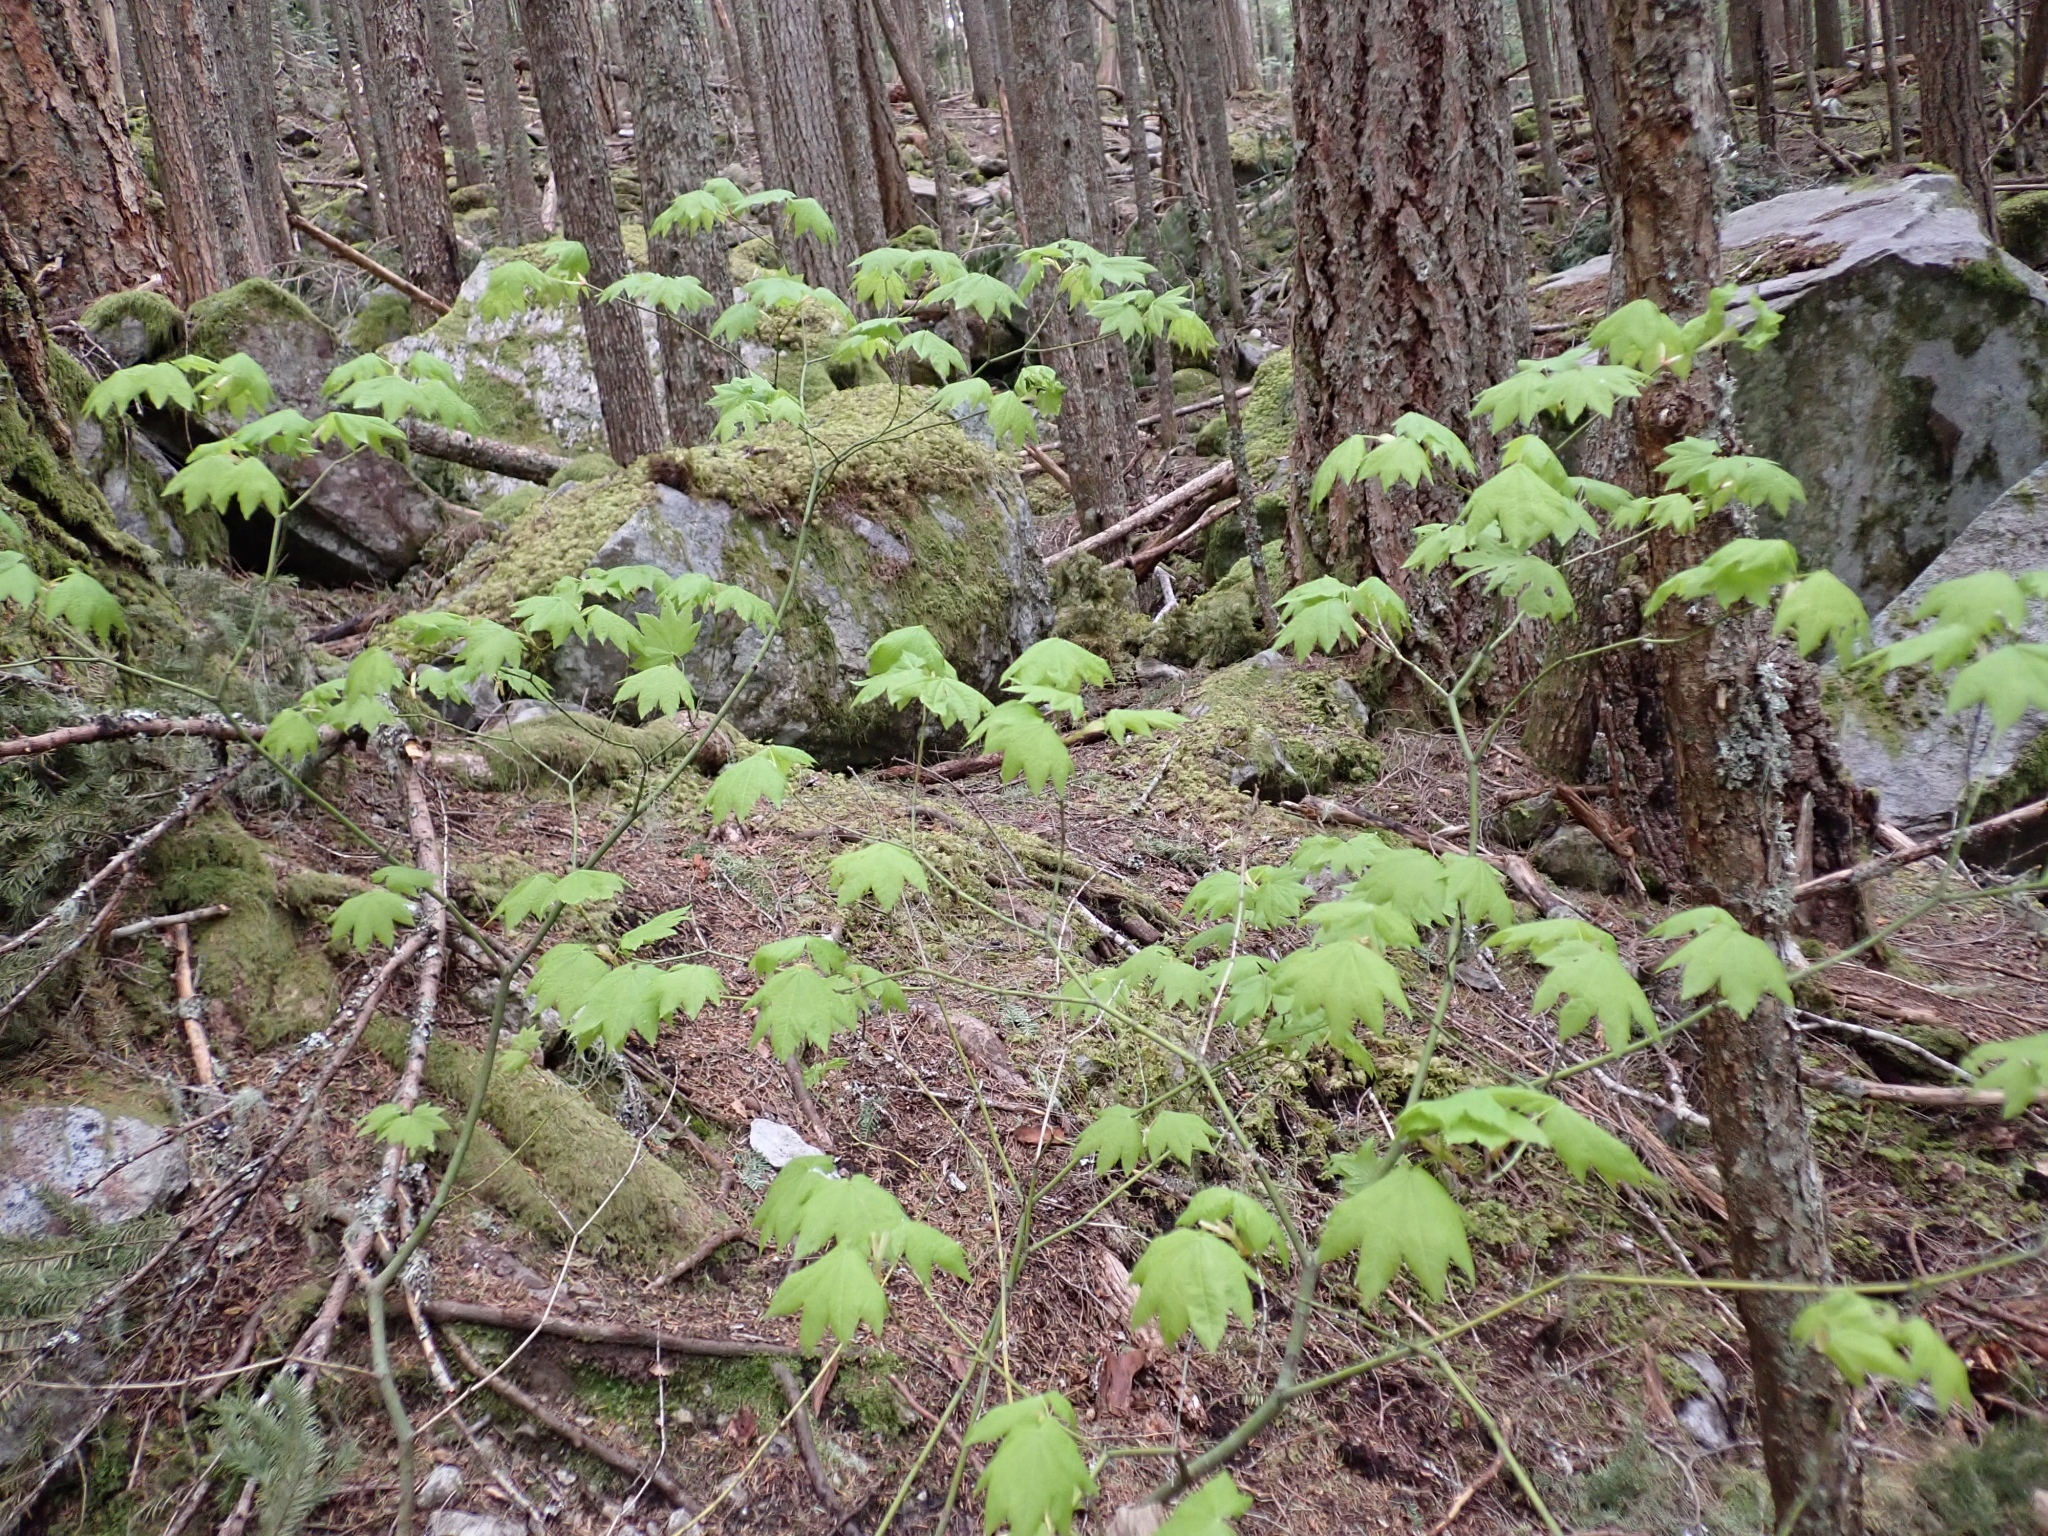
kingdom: Plantae
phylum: Tracheophyta
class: Magnoliopsida
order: Sapindales
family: Sapindaceae
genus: Acer
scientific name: Acer circinatum
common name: Vine maple
